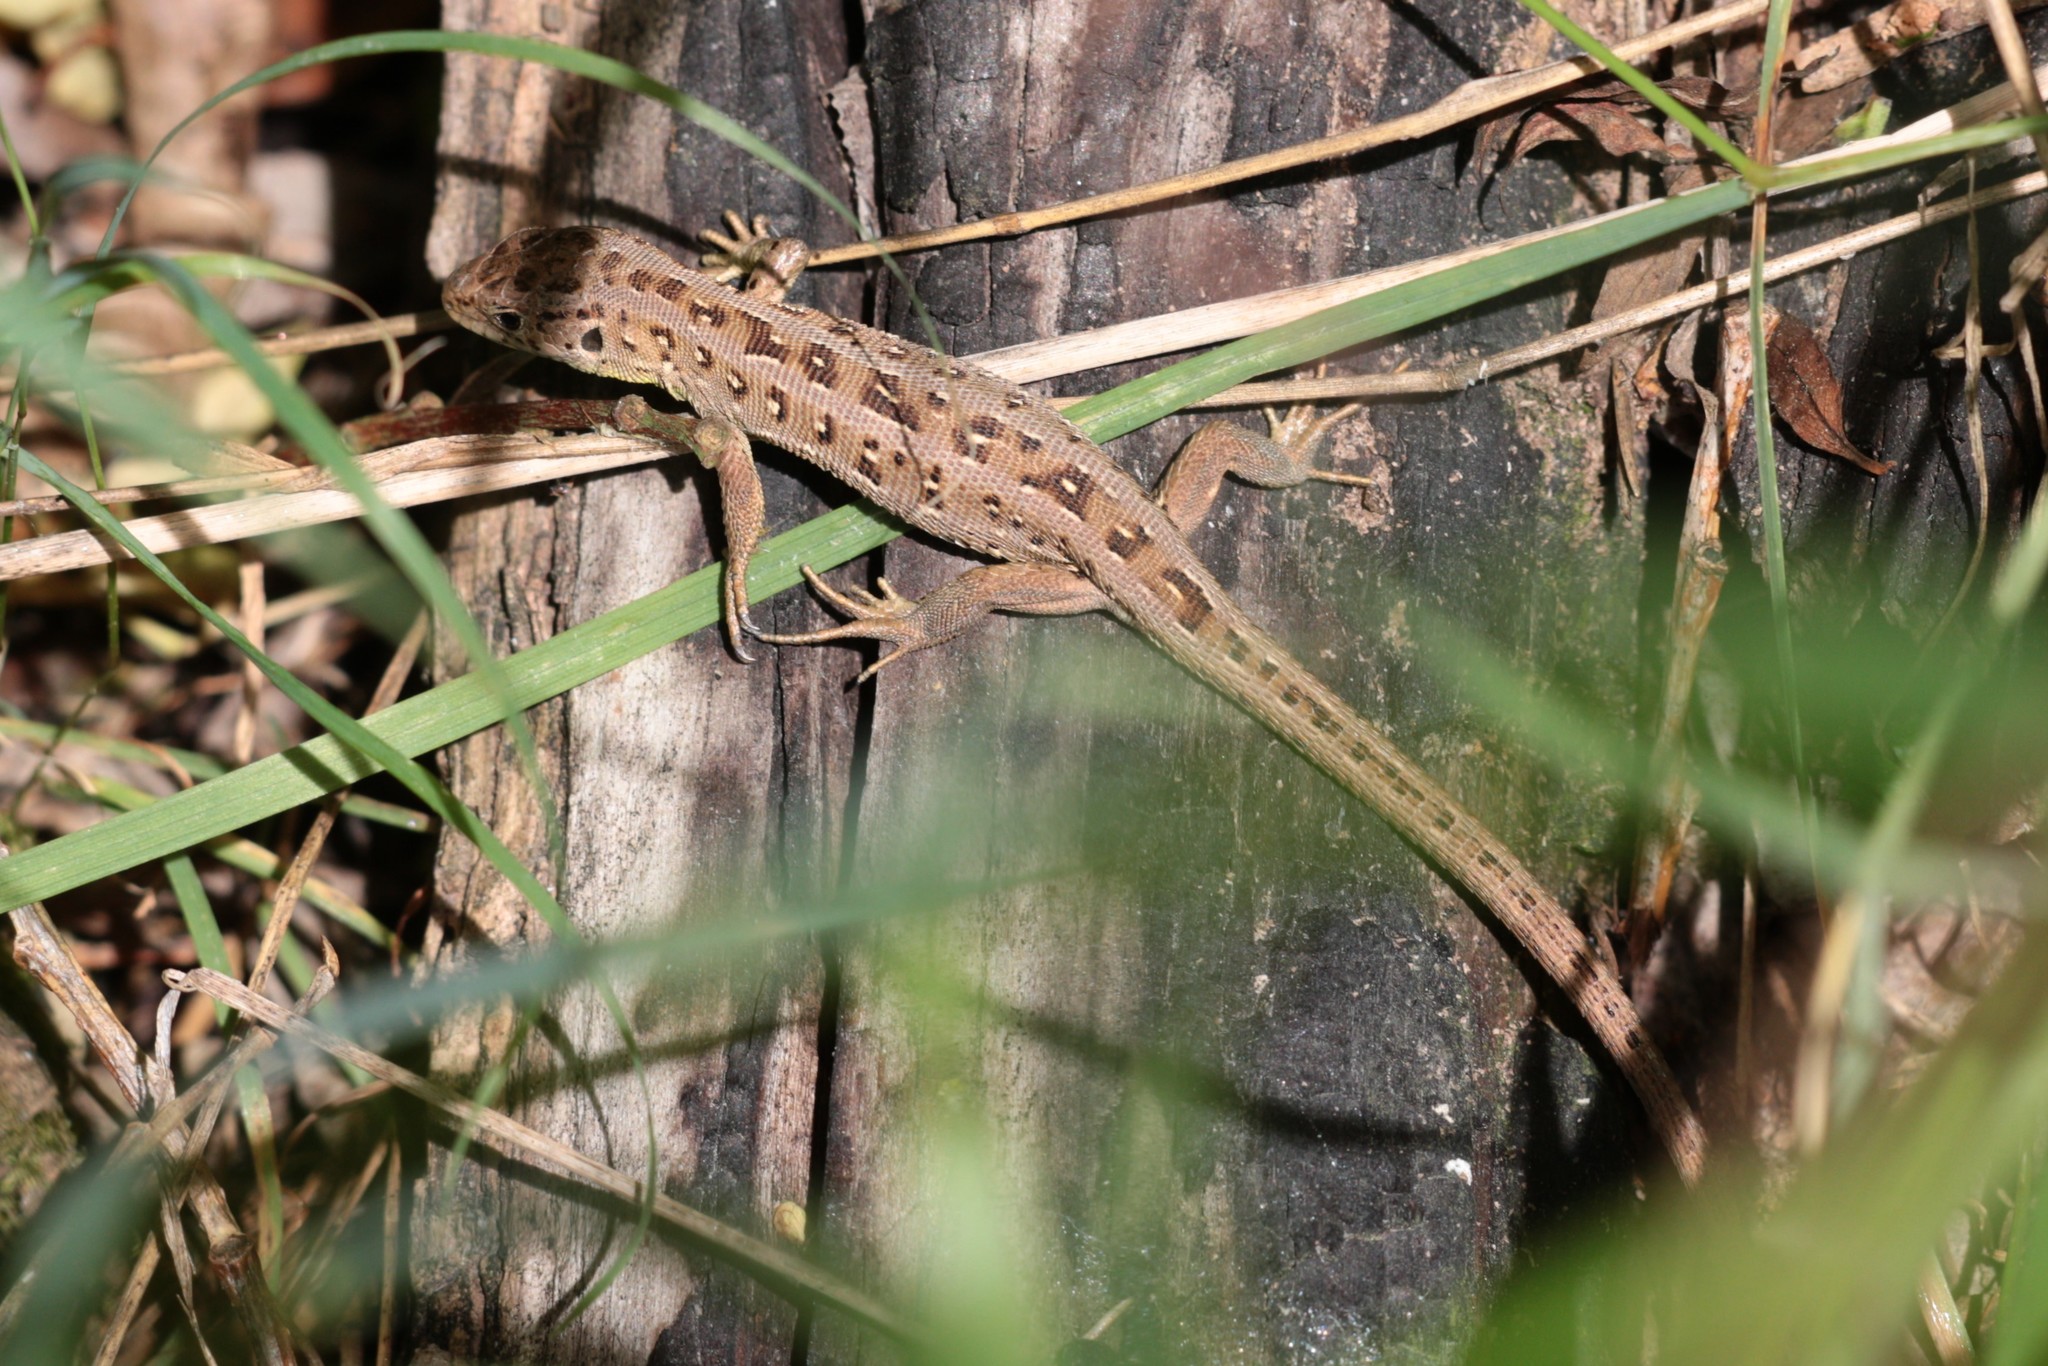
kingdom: Animalia
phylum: Chordata
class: Squamata
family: Lacertidae
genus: Lacerta
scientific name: Lacerta agilis
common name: Sand lizard
